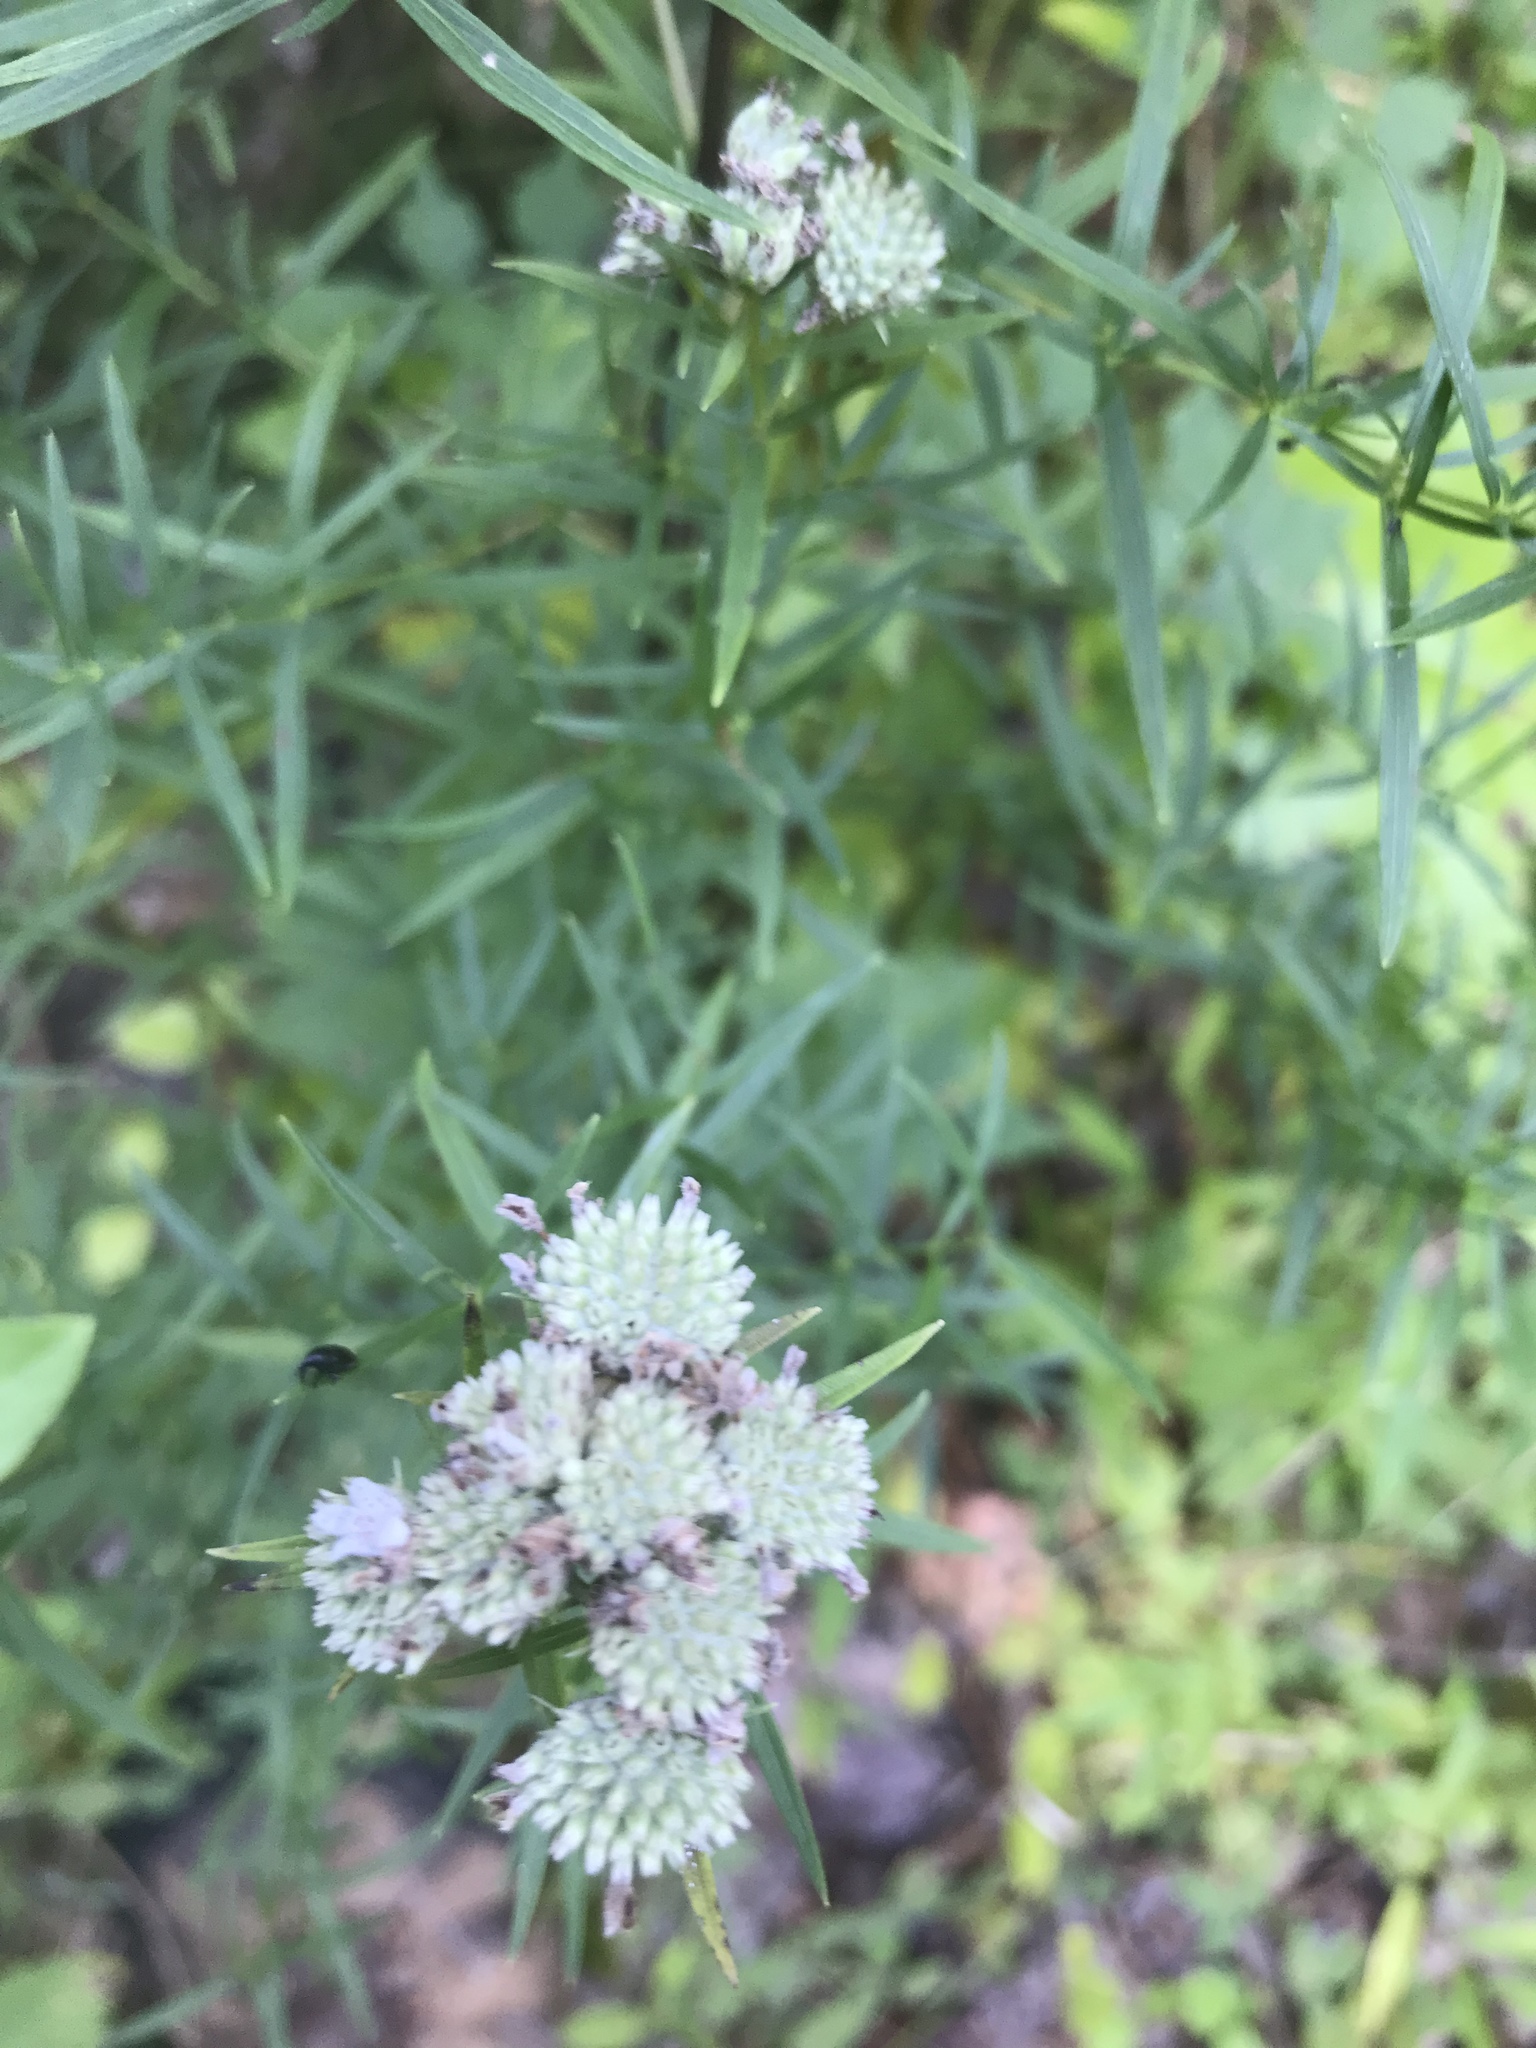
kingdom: Plantae
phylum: Tracheophyta
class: Magnoliopsida
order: Lamiales
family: Lamiaceae
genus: Pycnanthemum
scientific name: Pycnanthemum tenuifolium
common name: Narrow-leaf mountain-mint
